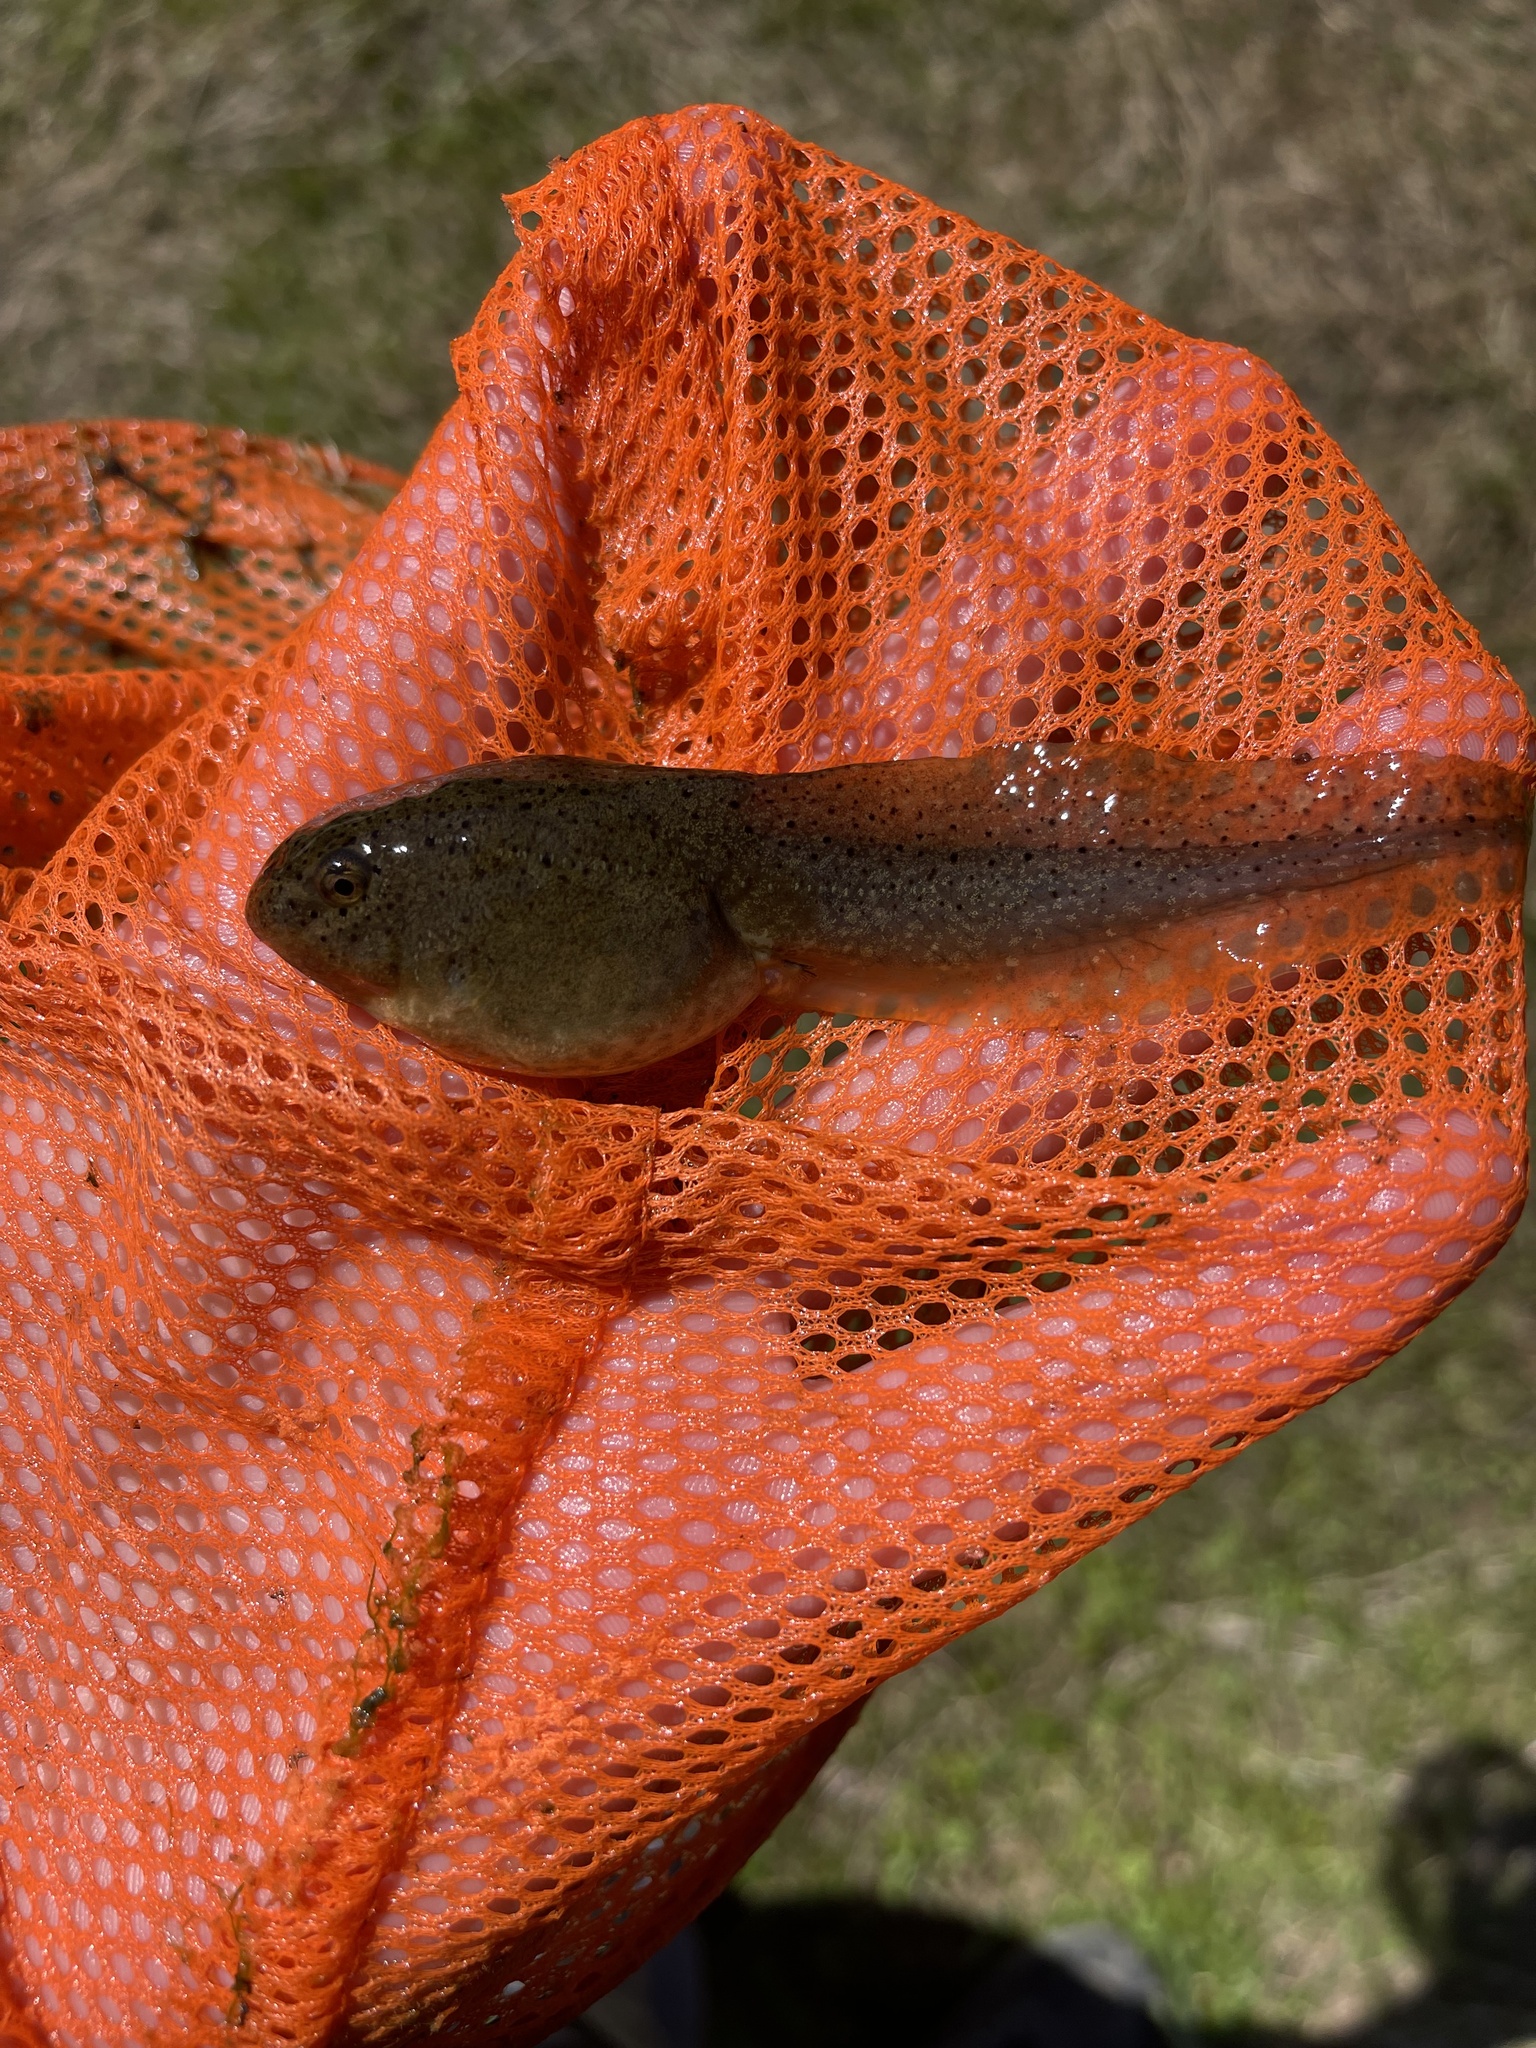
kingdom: Animalia
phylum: Chordata
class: Amphibia
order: Anura
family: Ranidae
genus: Lithobates
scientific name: Lithobates catesbeianus
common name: American bullfrog
